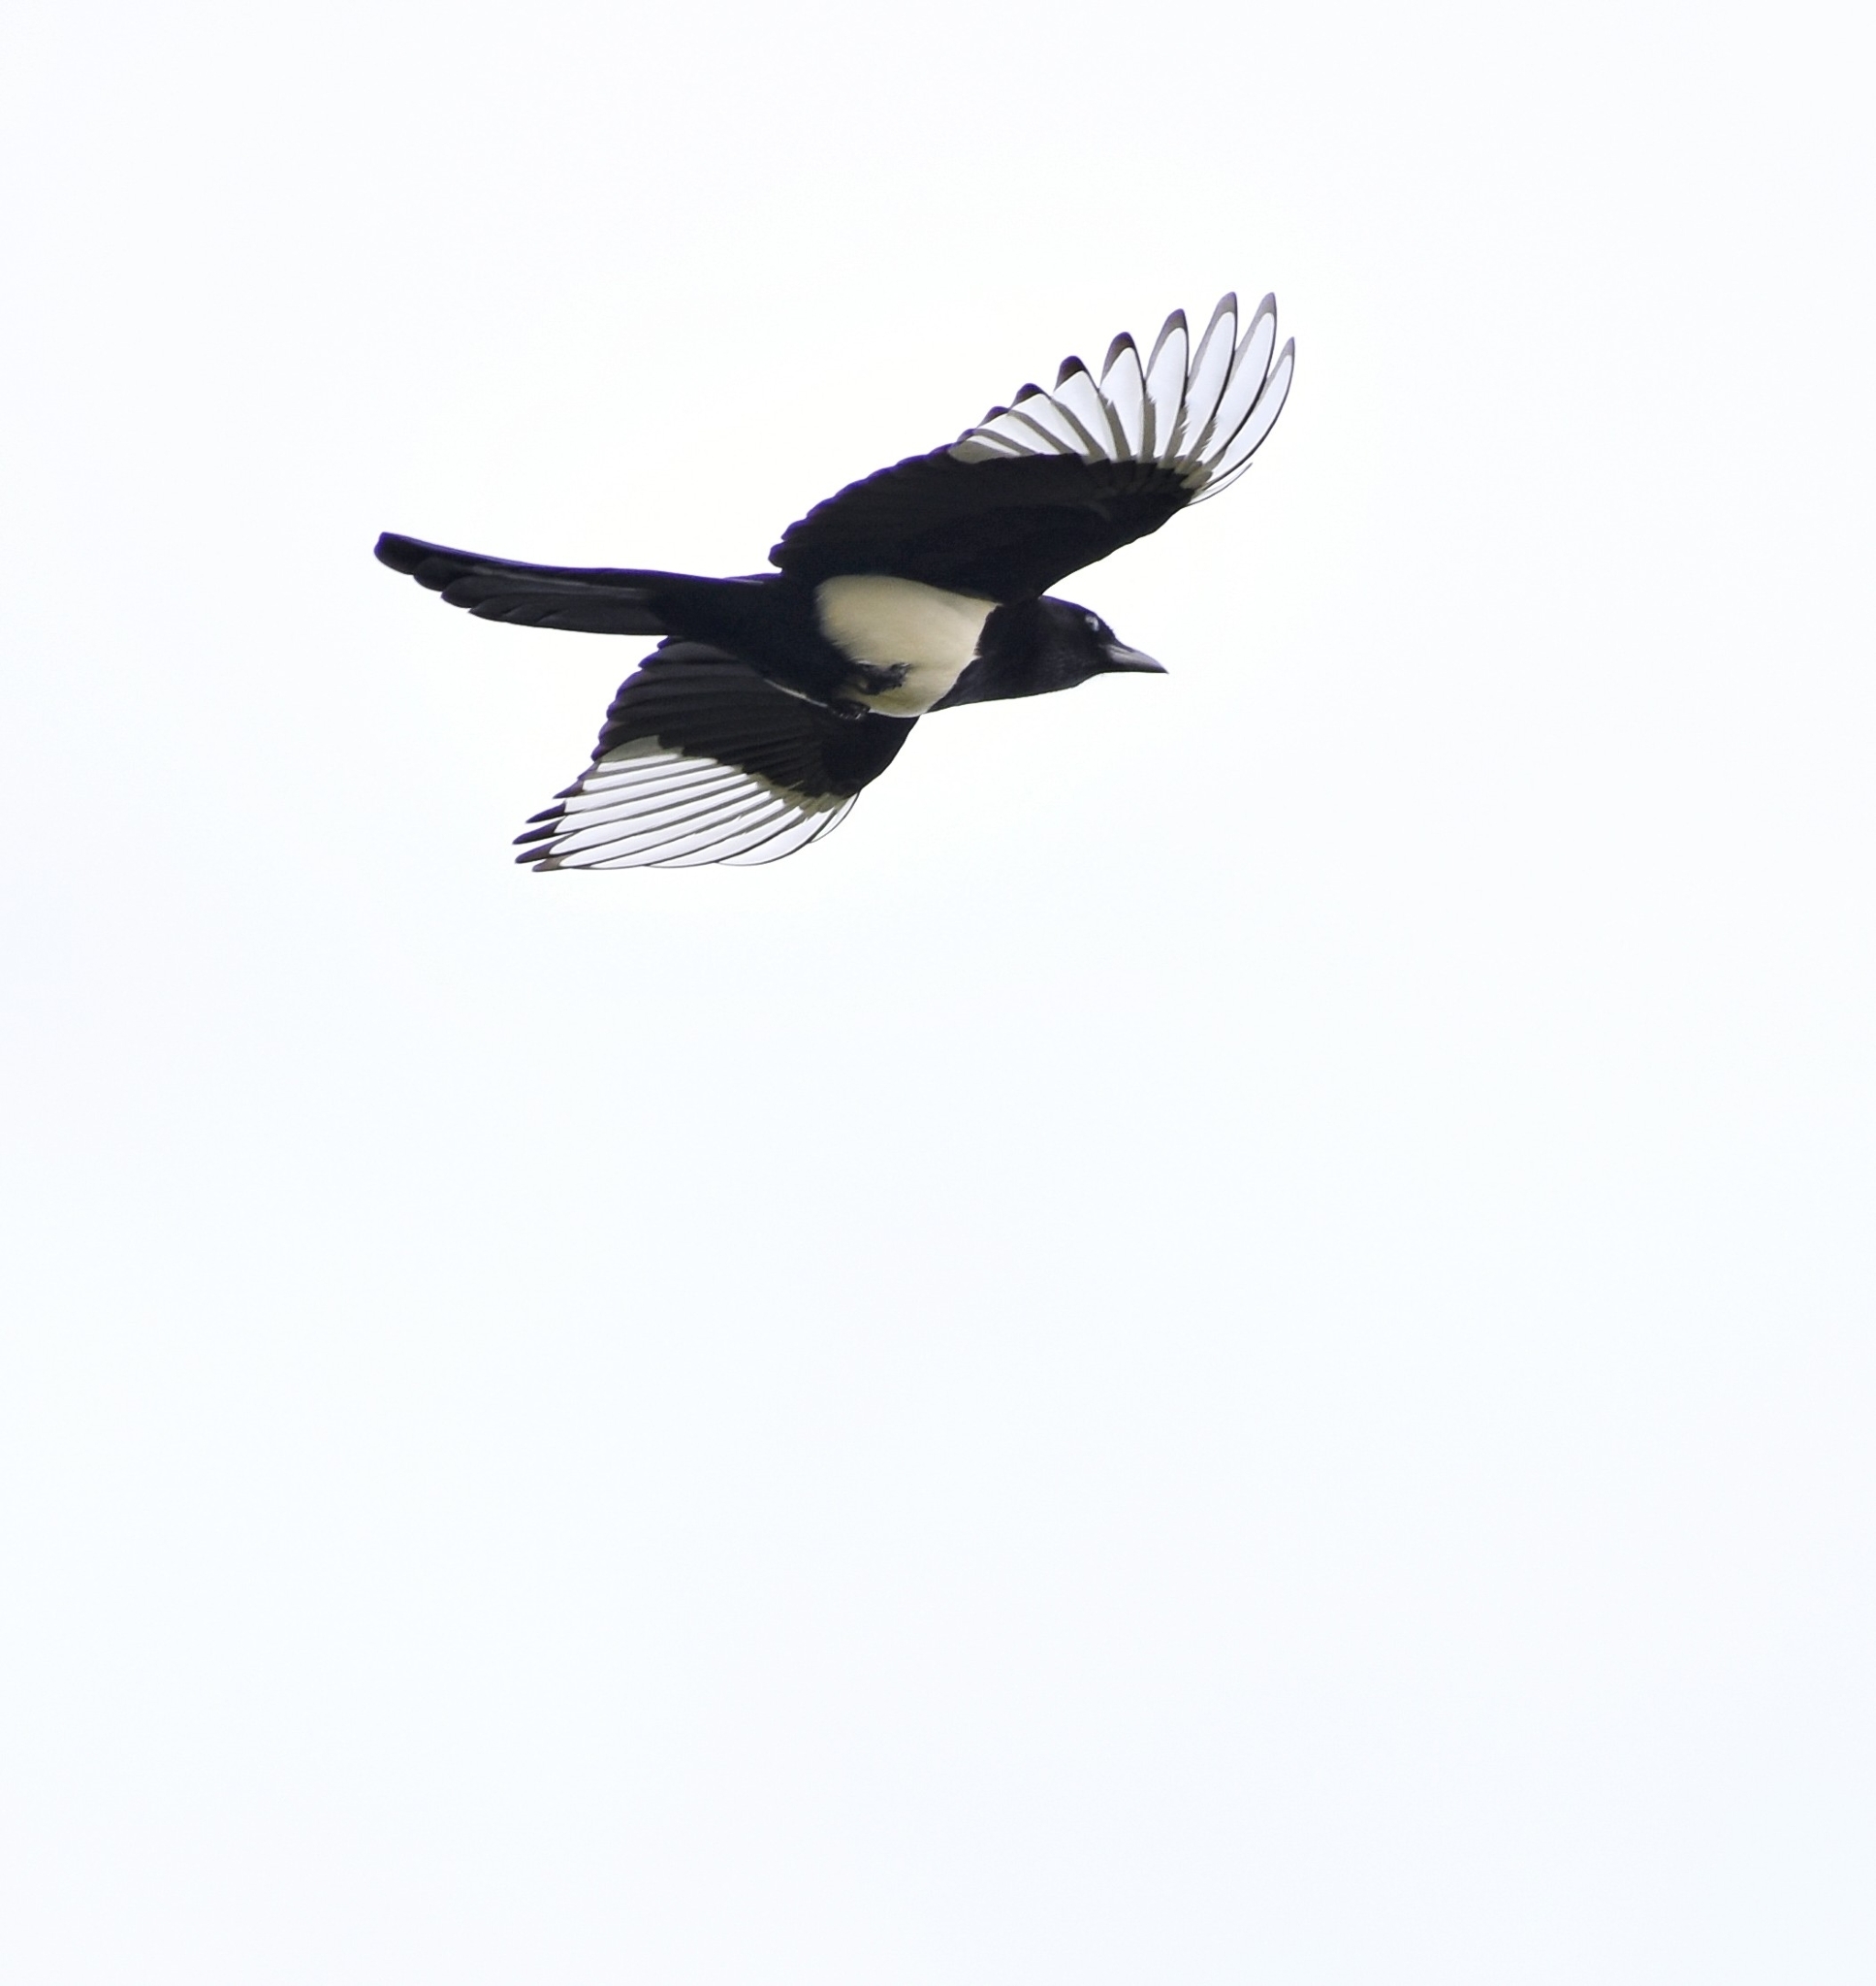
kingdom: Animalia
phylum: Chordata
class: Aves
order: Passeriformes
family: Corvidae
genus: Pica
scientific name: Pica serica
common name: Oriental magpie
